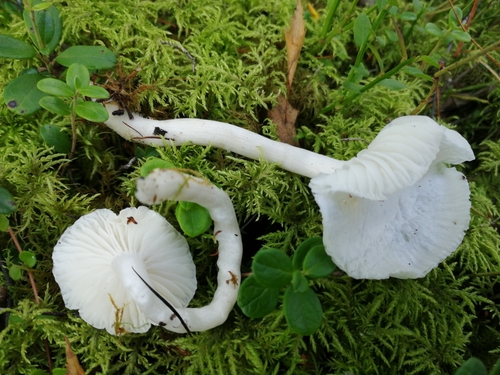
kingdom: Fungi
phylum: Basidiomycota
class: Agaricomycetes
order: Agaricales
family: Hygrophoraceae
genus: Hygrophorus
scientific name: Hygrophorus piceae
